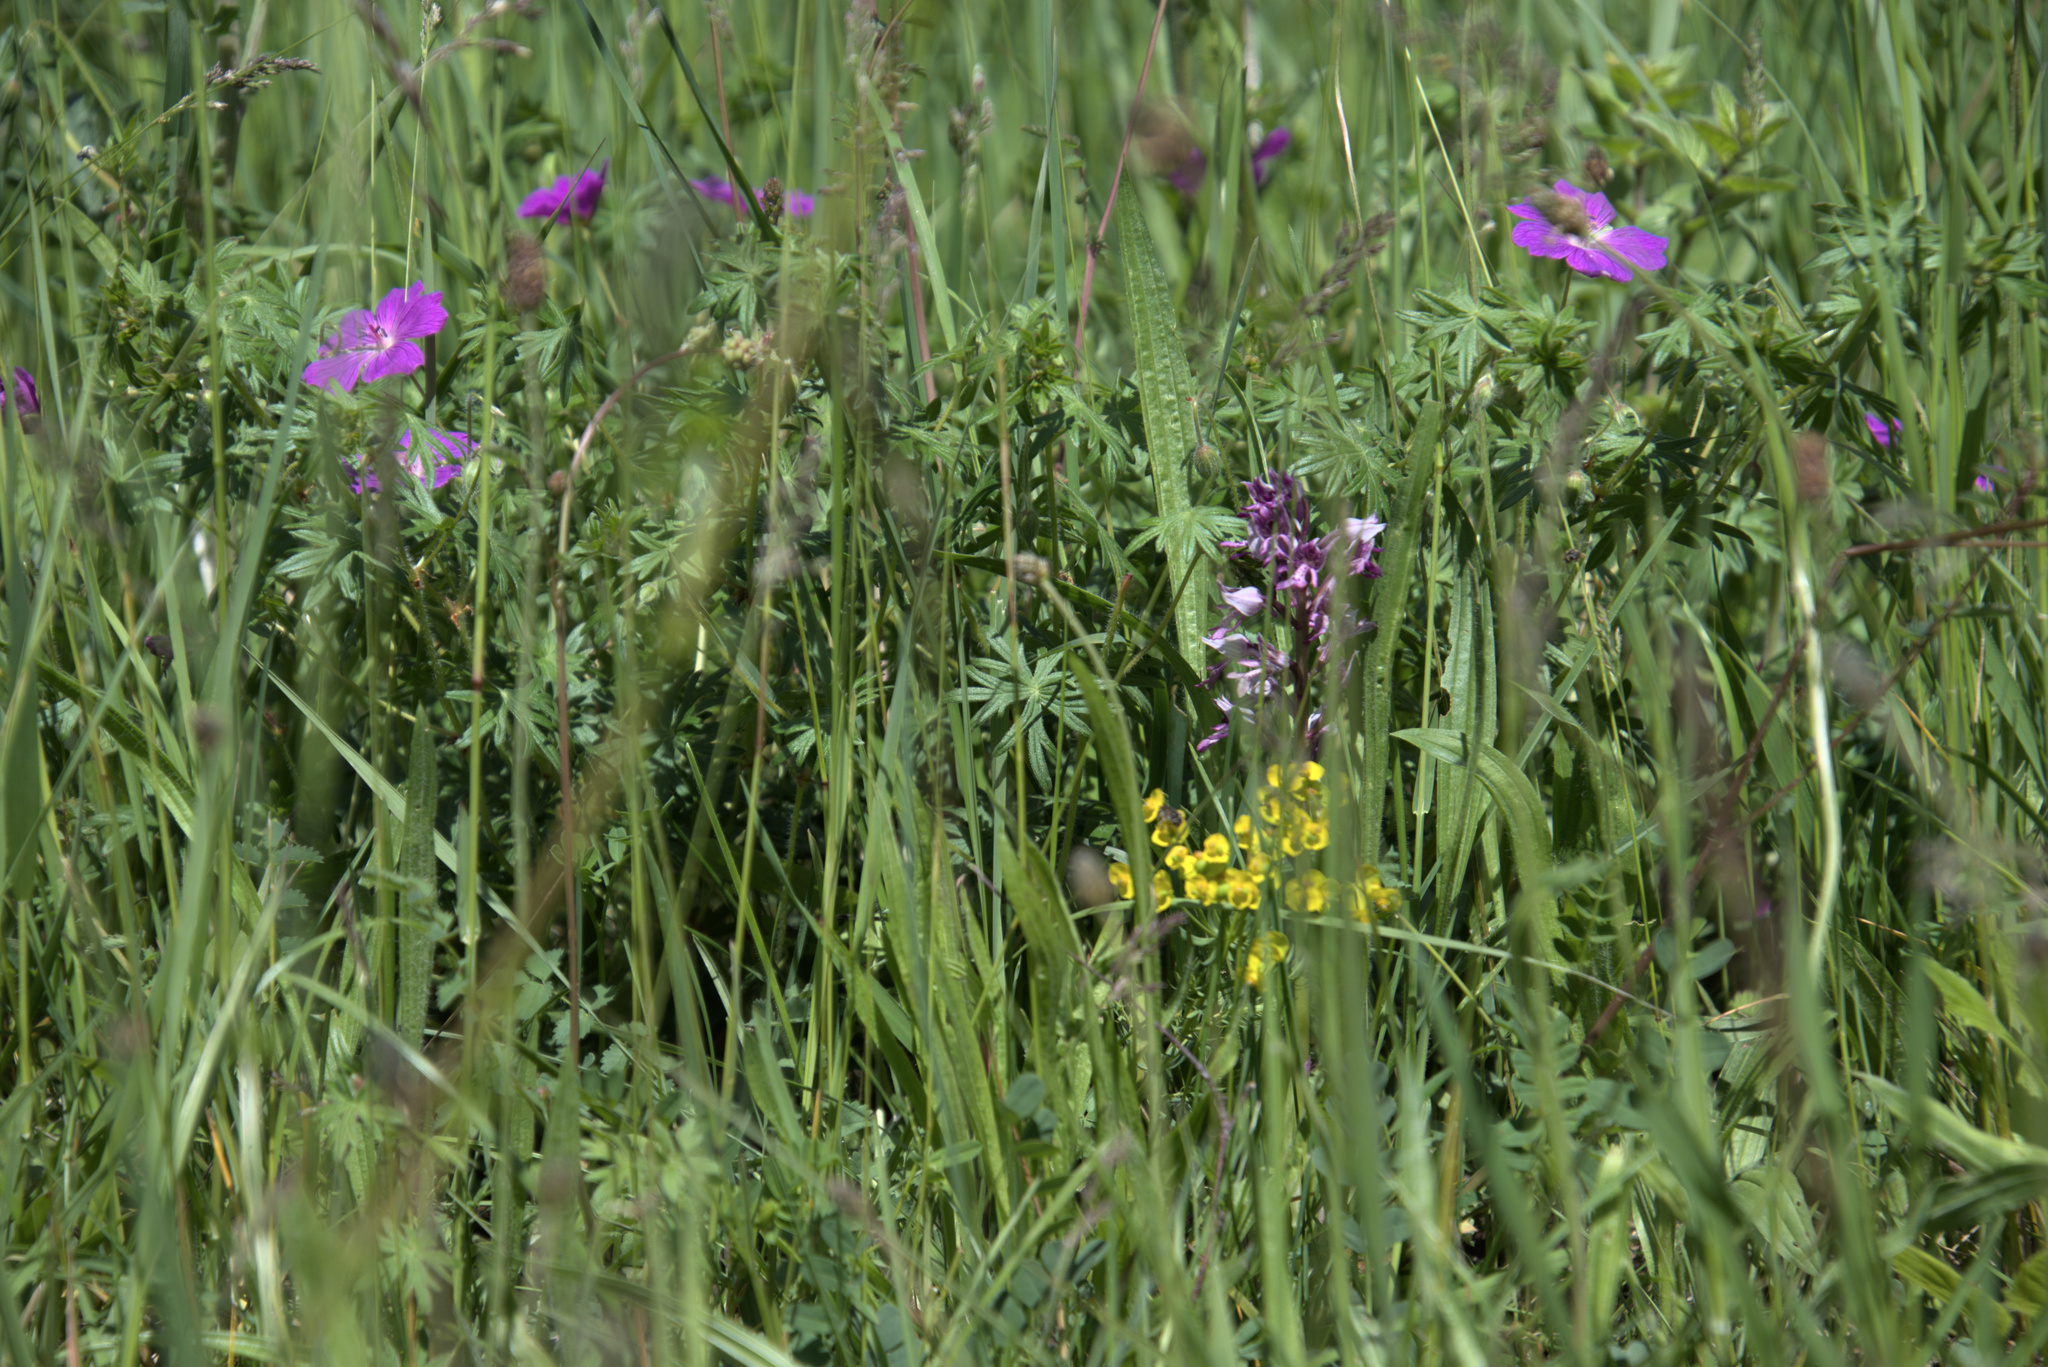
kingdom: Plantae
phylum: Tracheophyta
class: Magnoliopsida
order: Geraniales
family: Geraniaceae
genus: Geranium
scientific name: Geranium sanguineum
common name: Bloody crane's-bill
